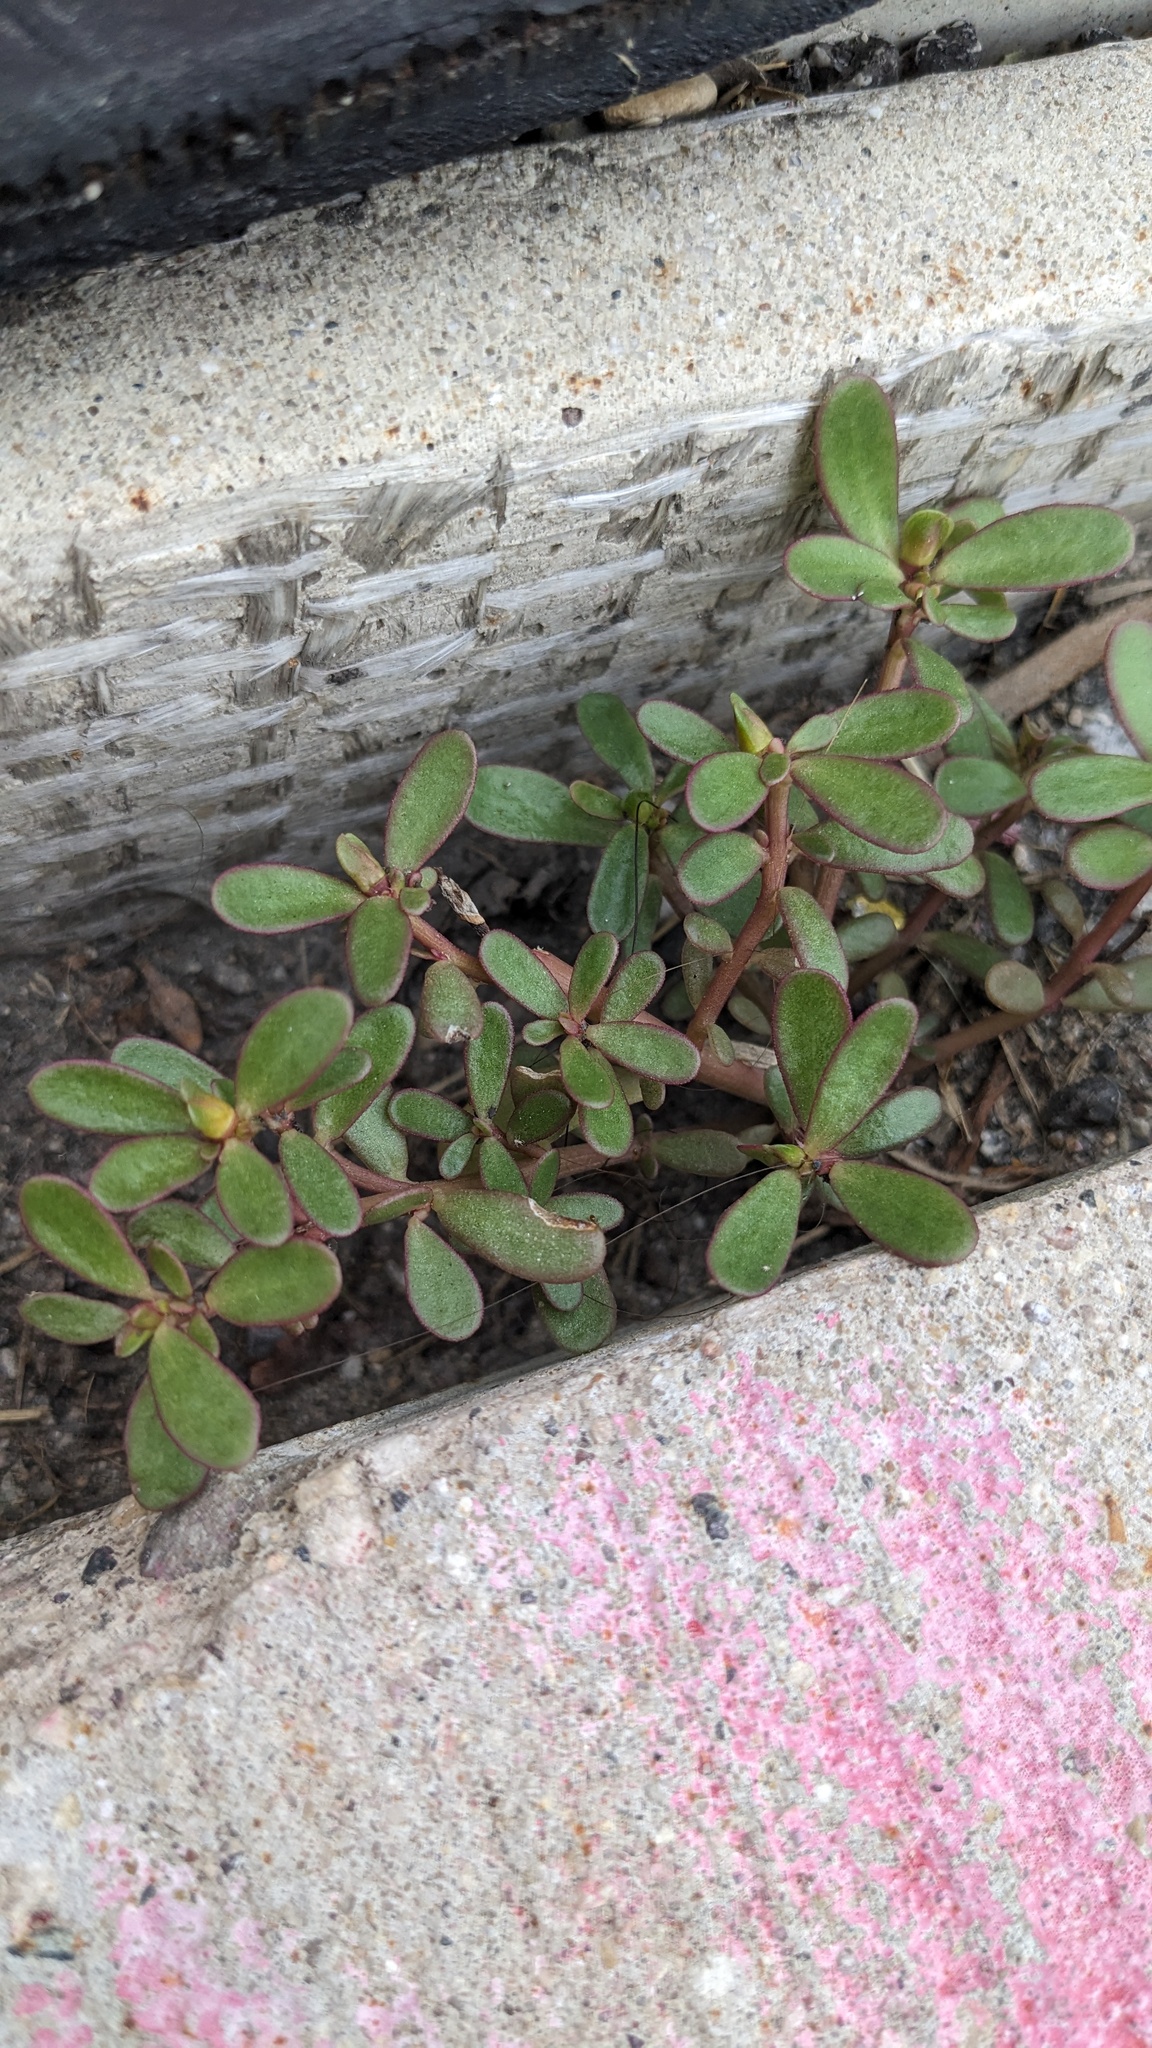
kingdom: Plantae
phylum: Tracheophyta
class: Magnoliopsida
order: Caryophyllales
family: Portulacaceae
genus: Portulaca
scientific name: Portulaca oleracea
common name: Common purslane
